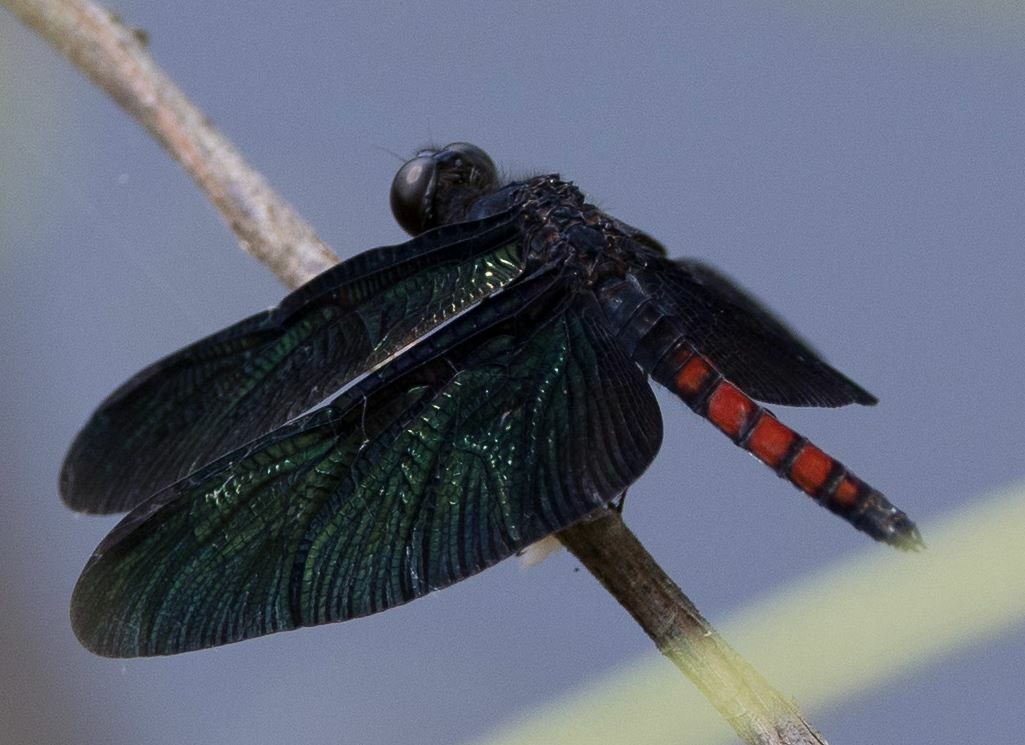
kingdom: Animalia
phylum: Arthropoda
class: Insecta
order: Odonata
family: Libellulidae
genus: Diastatops
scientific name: Diastatops obscura
